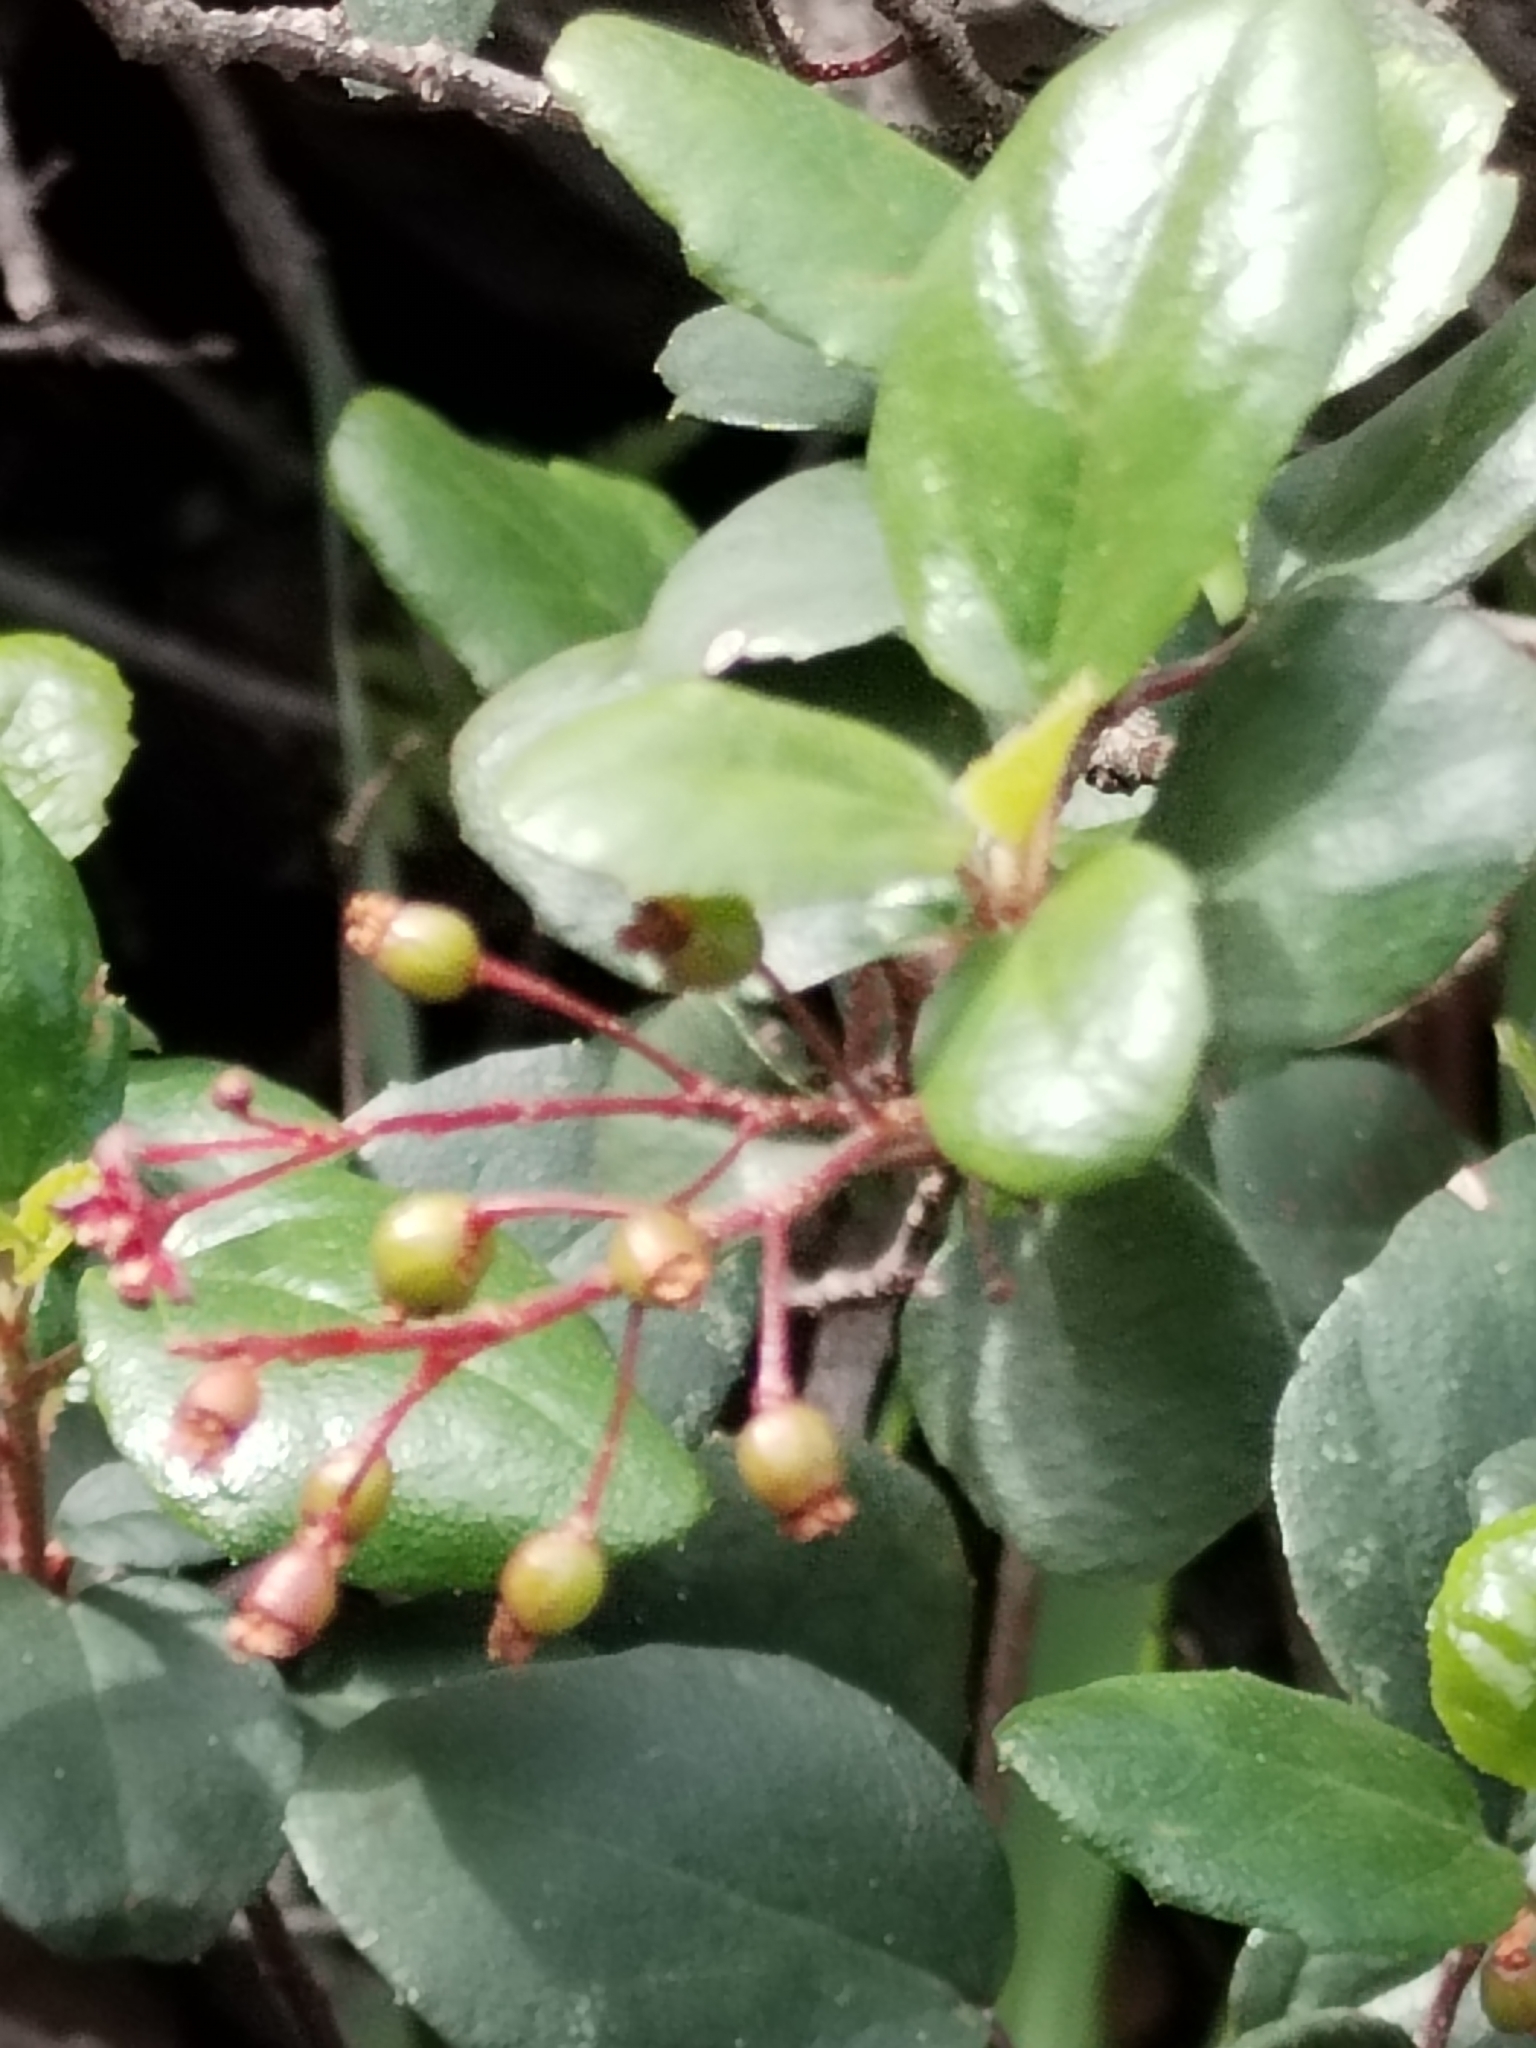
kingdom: Plantae
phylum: Tracheophyta
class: Magnoliopsida
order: Saxifragales
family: Grossulariaceae
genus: Ribes
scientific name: Ribes viburnifolium
